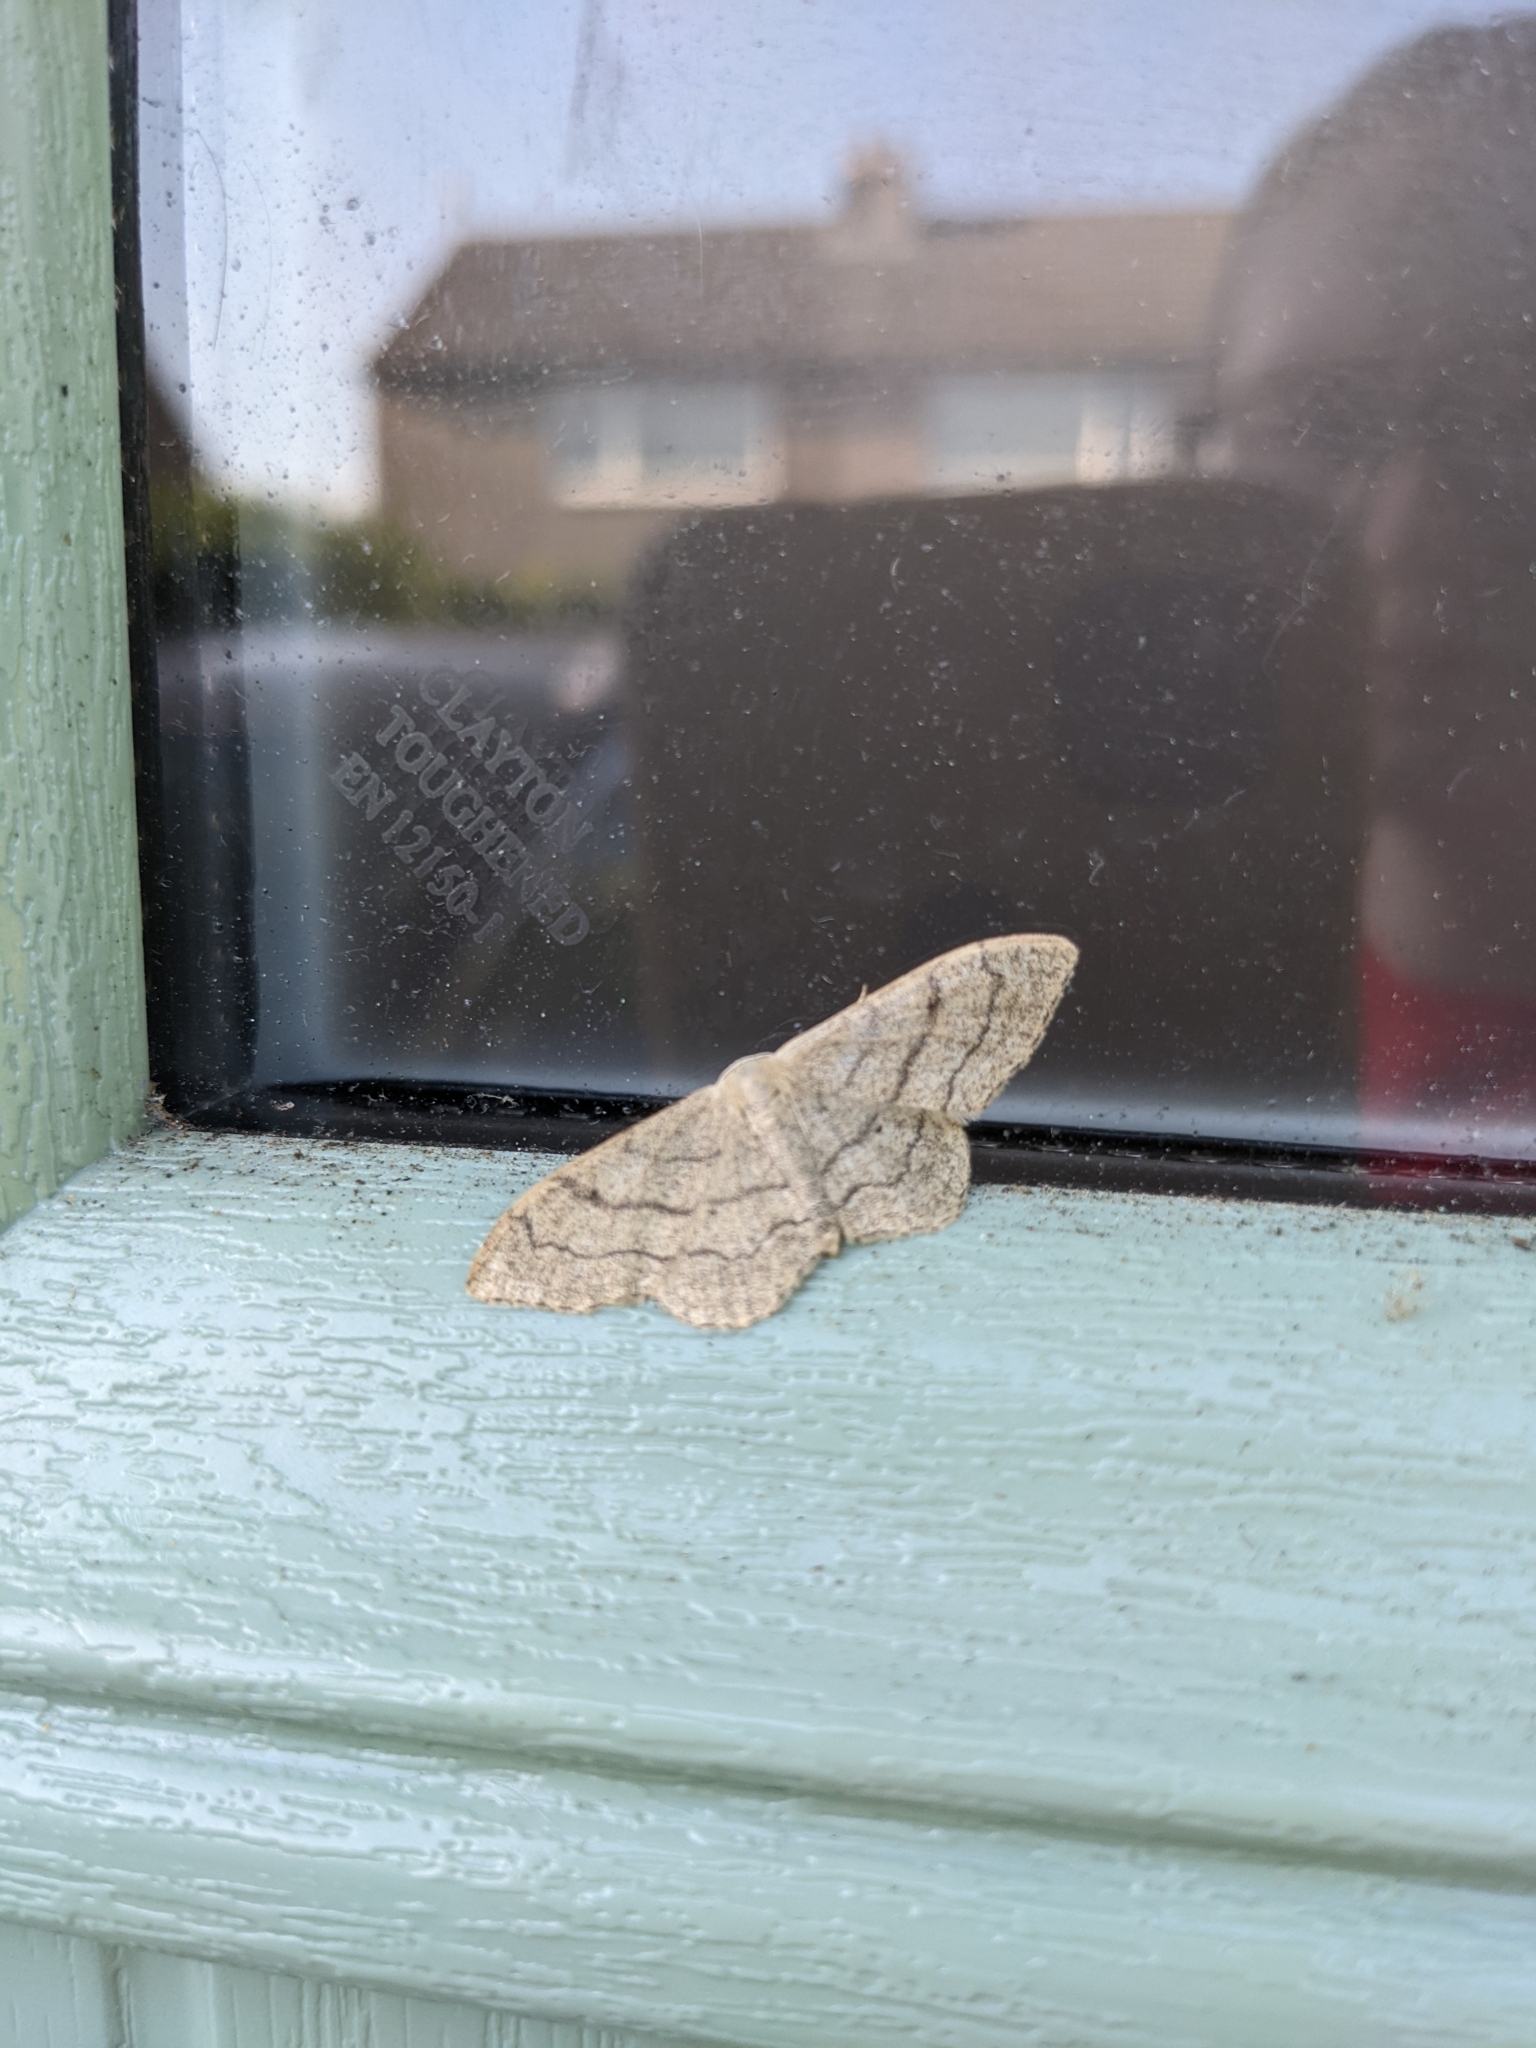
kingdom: Animalia
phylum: Arthropoda
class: Insecta
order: Lepidoptera
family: Geometridae
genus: Idaea
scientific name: Idaea aversata
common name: Riband wave
